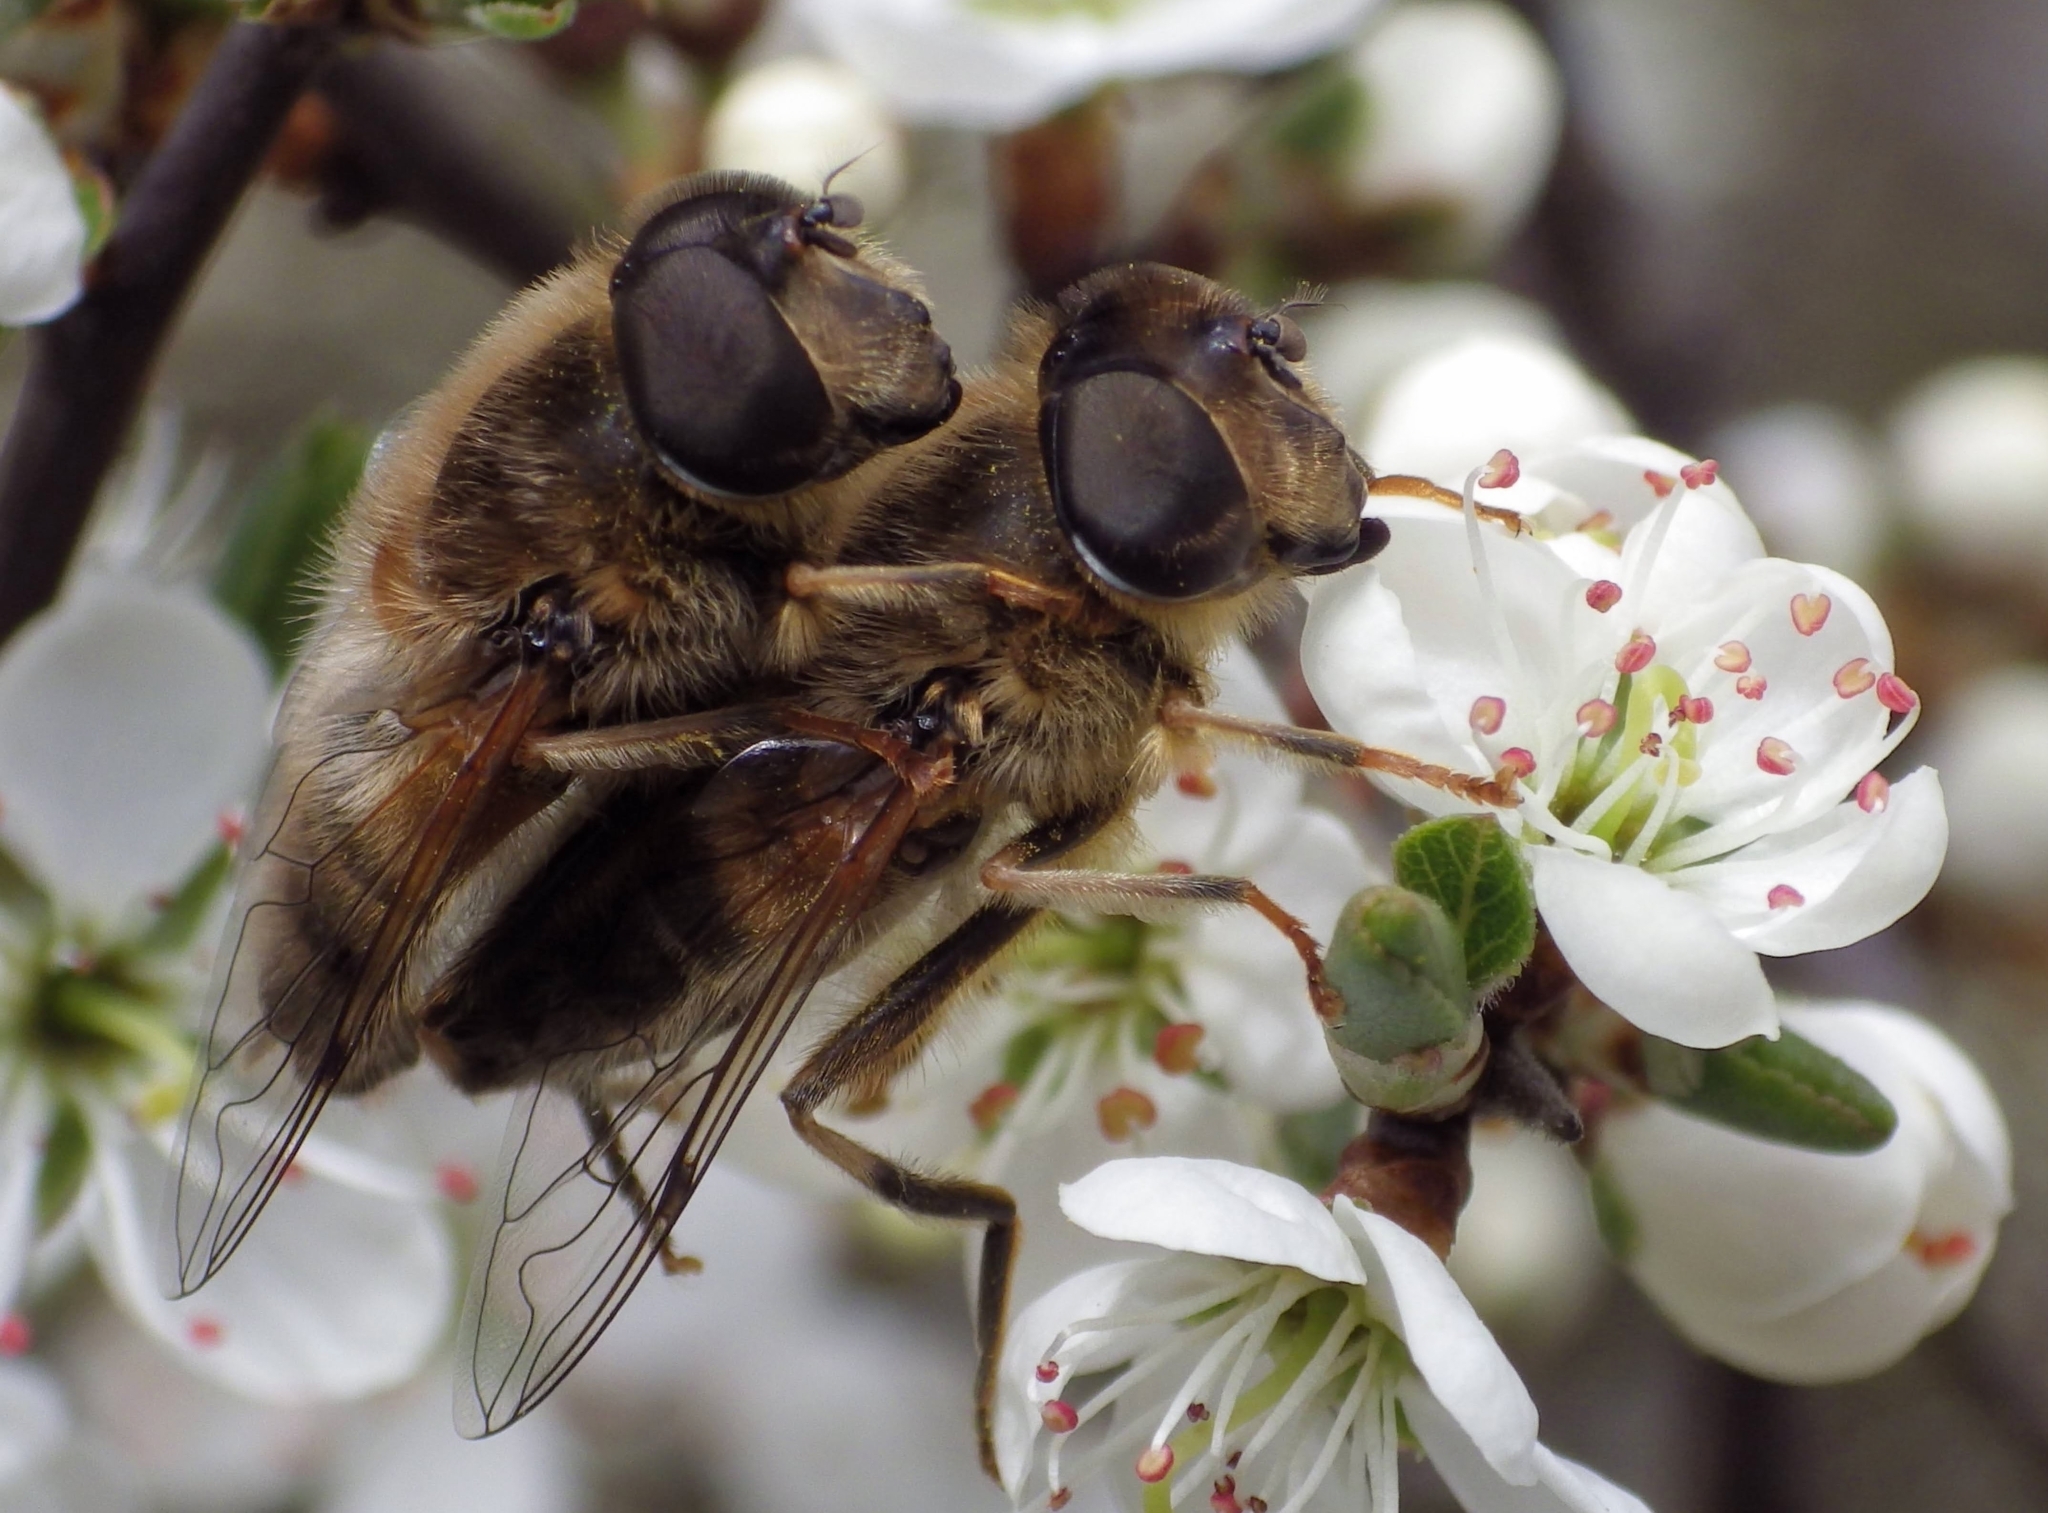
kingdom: Animalia
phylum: Arthropoda
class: Insecta
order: Diptera
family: Syrphidae
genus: Eristalis
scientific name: Eristalis pertinax
